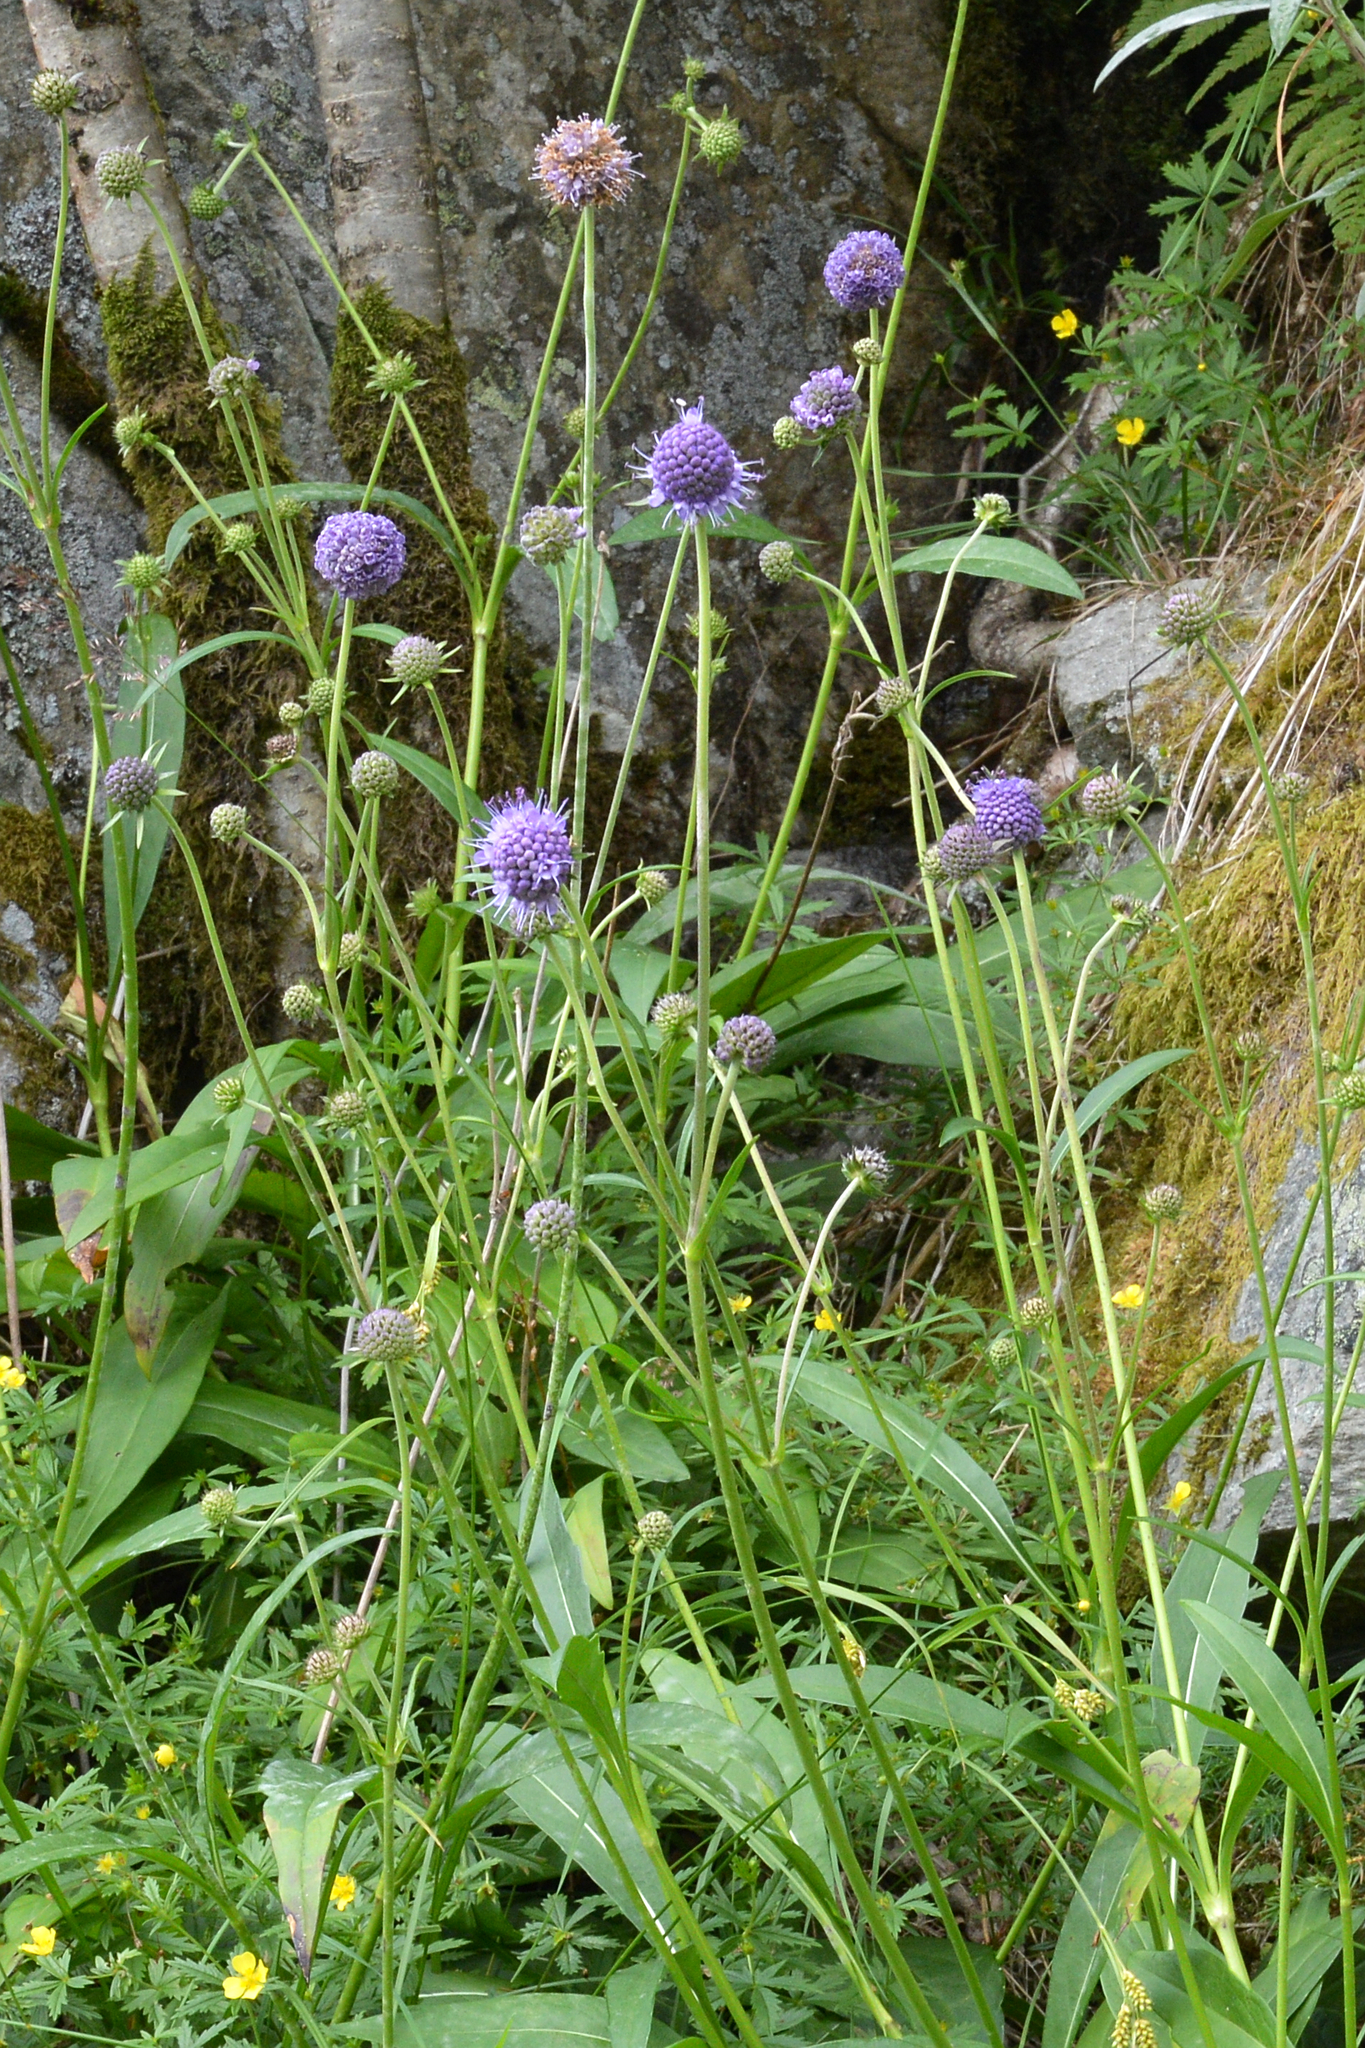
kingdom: Plantae
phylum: Tracheophyta
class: Magnoliopsida
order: Dipsacales
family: Caprifoliaceae
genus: Succisa
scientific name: Succisa pratensis
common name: Devil's-bit
